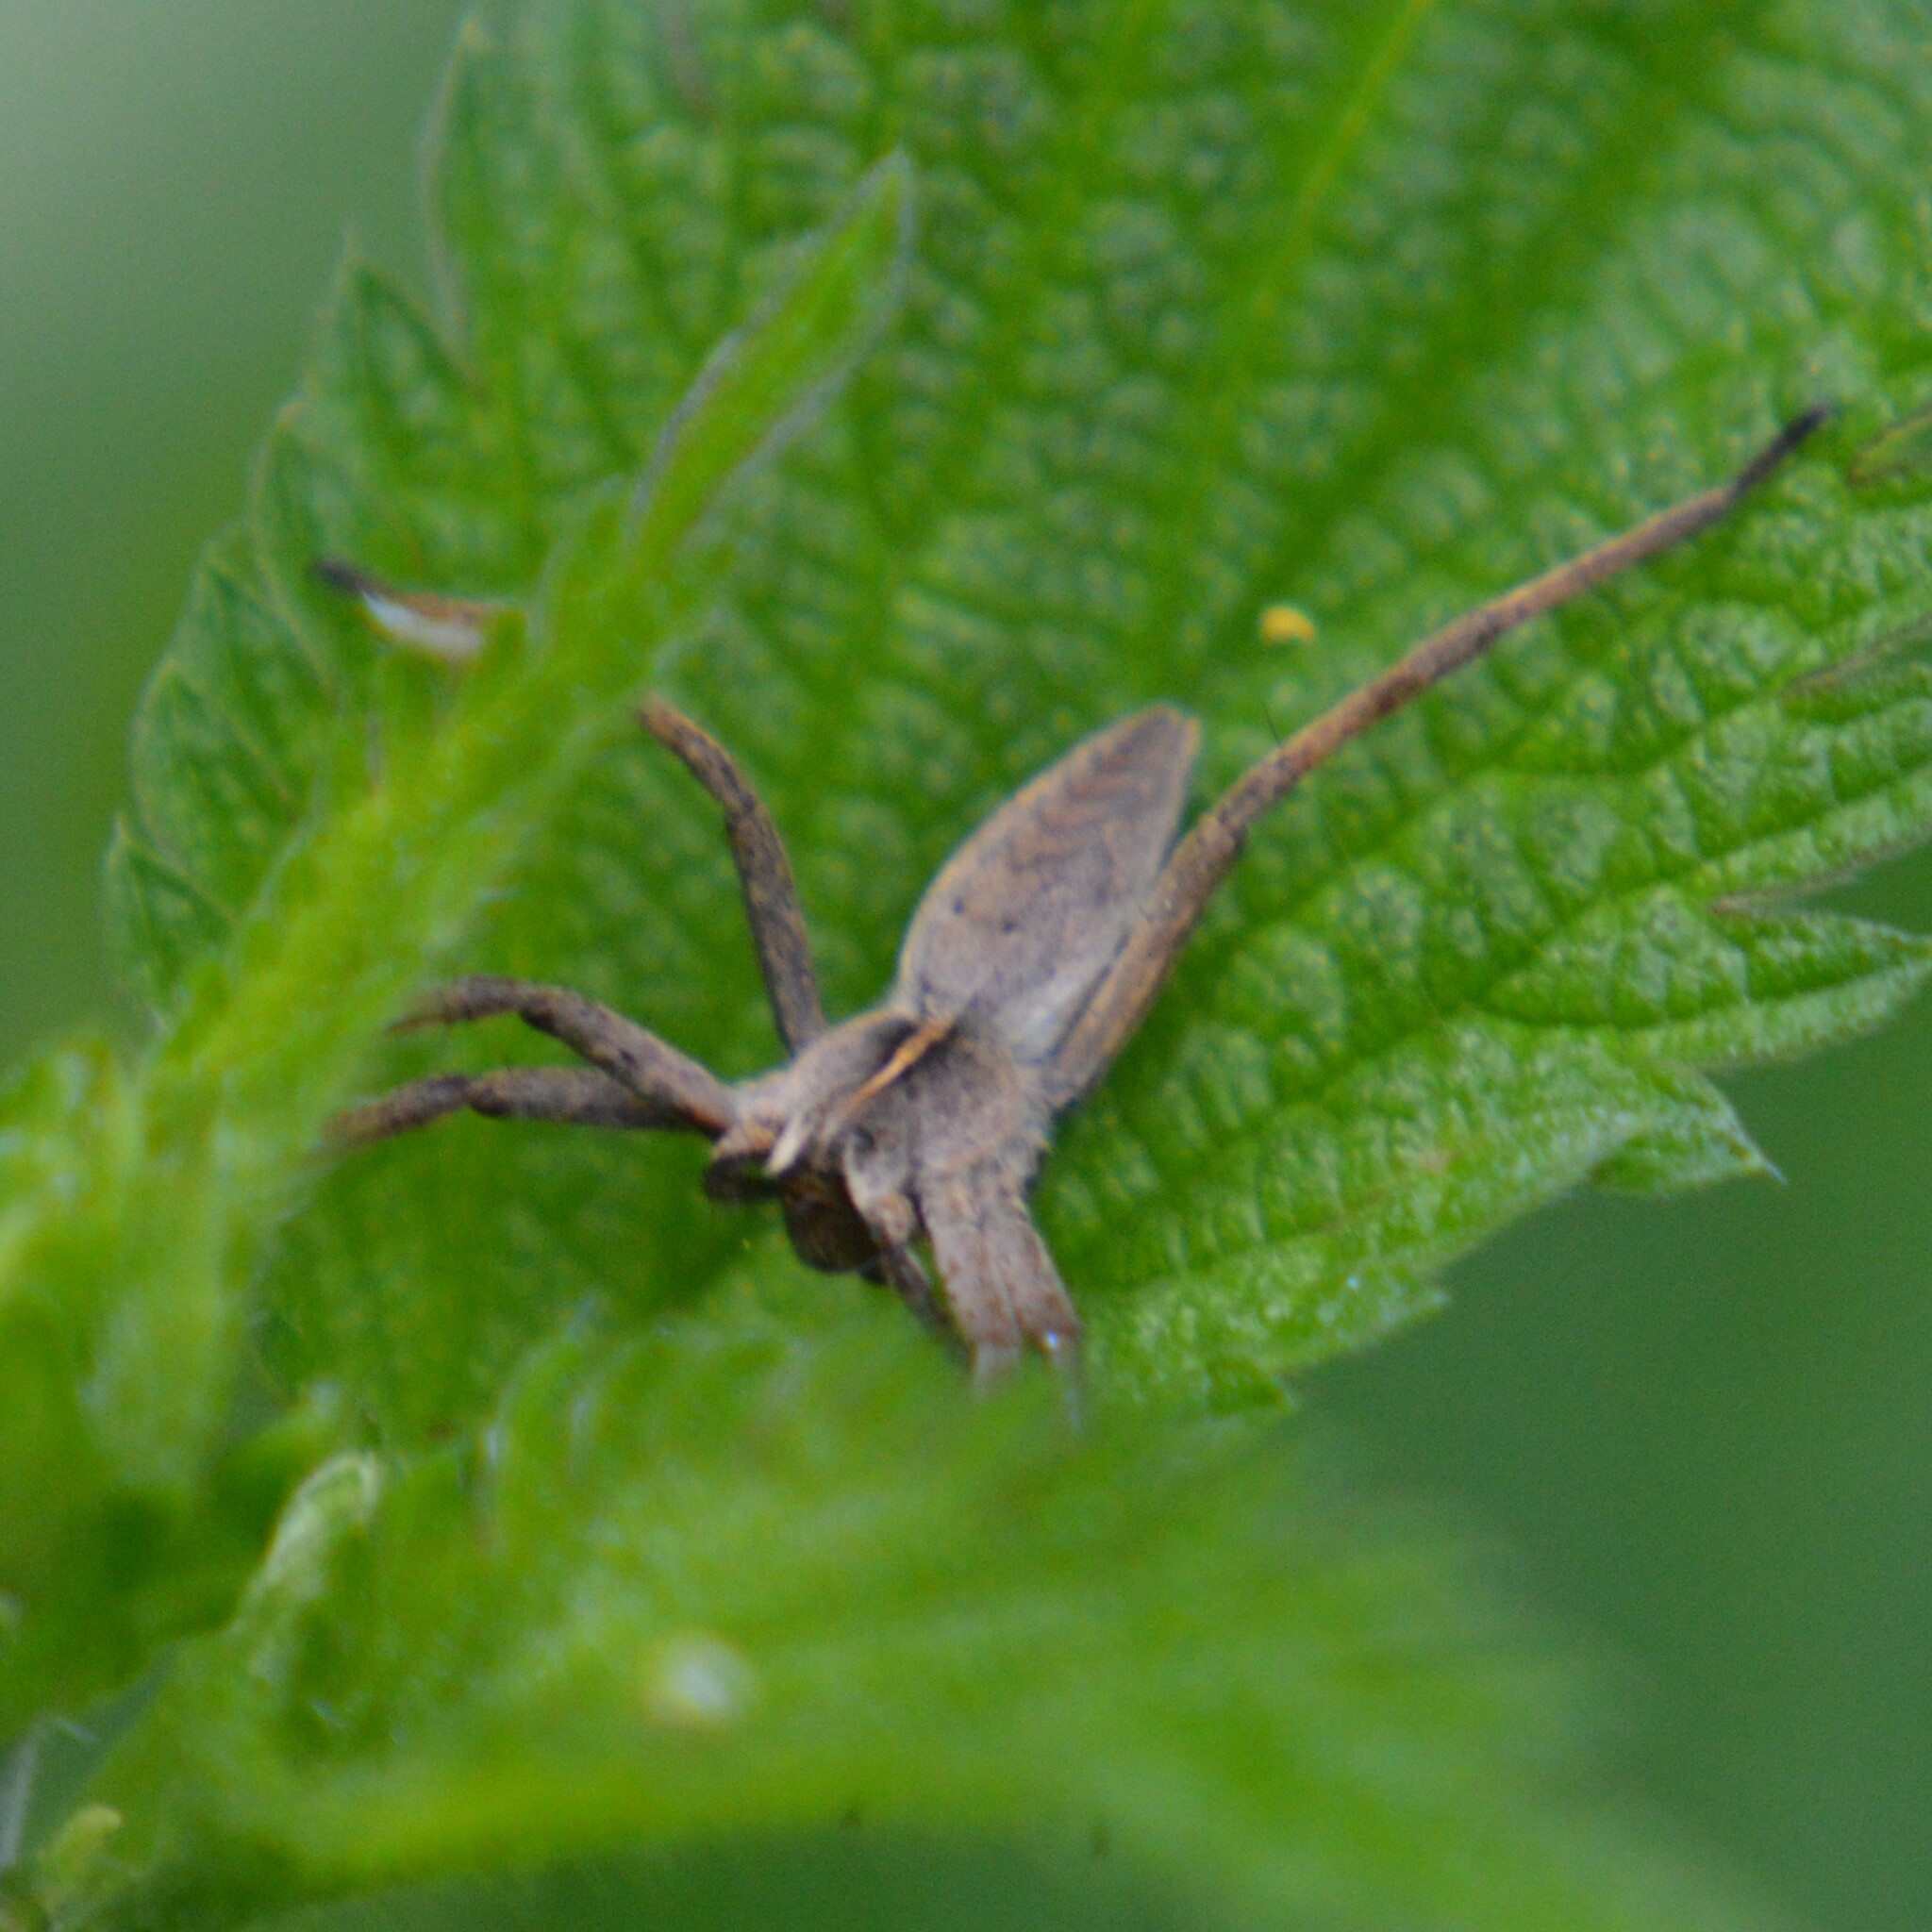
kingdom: Animalia
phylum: Arthropoda
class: Arachnida
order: Araneae
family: Pisauridae
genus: Pisaura
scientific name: Pisaura mirabilis
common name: Tent spider
